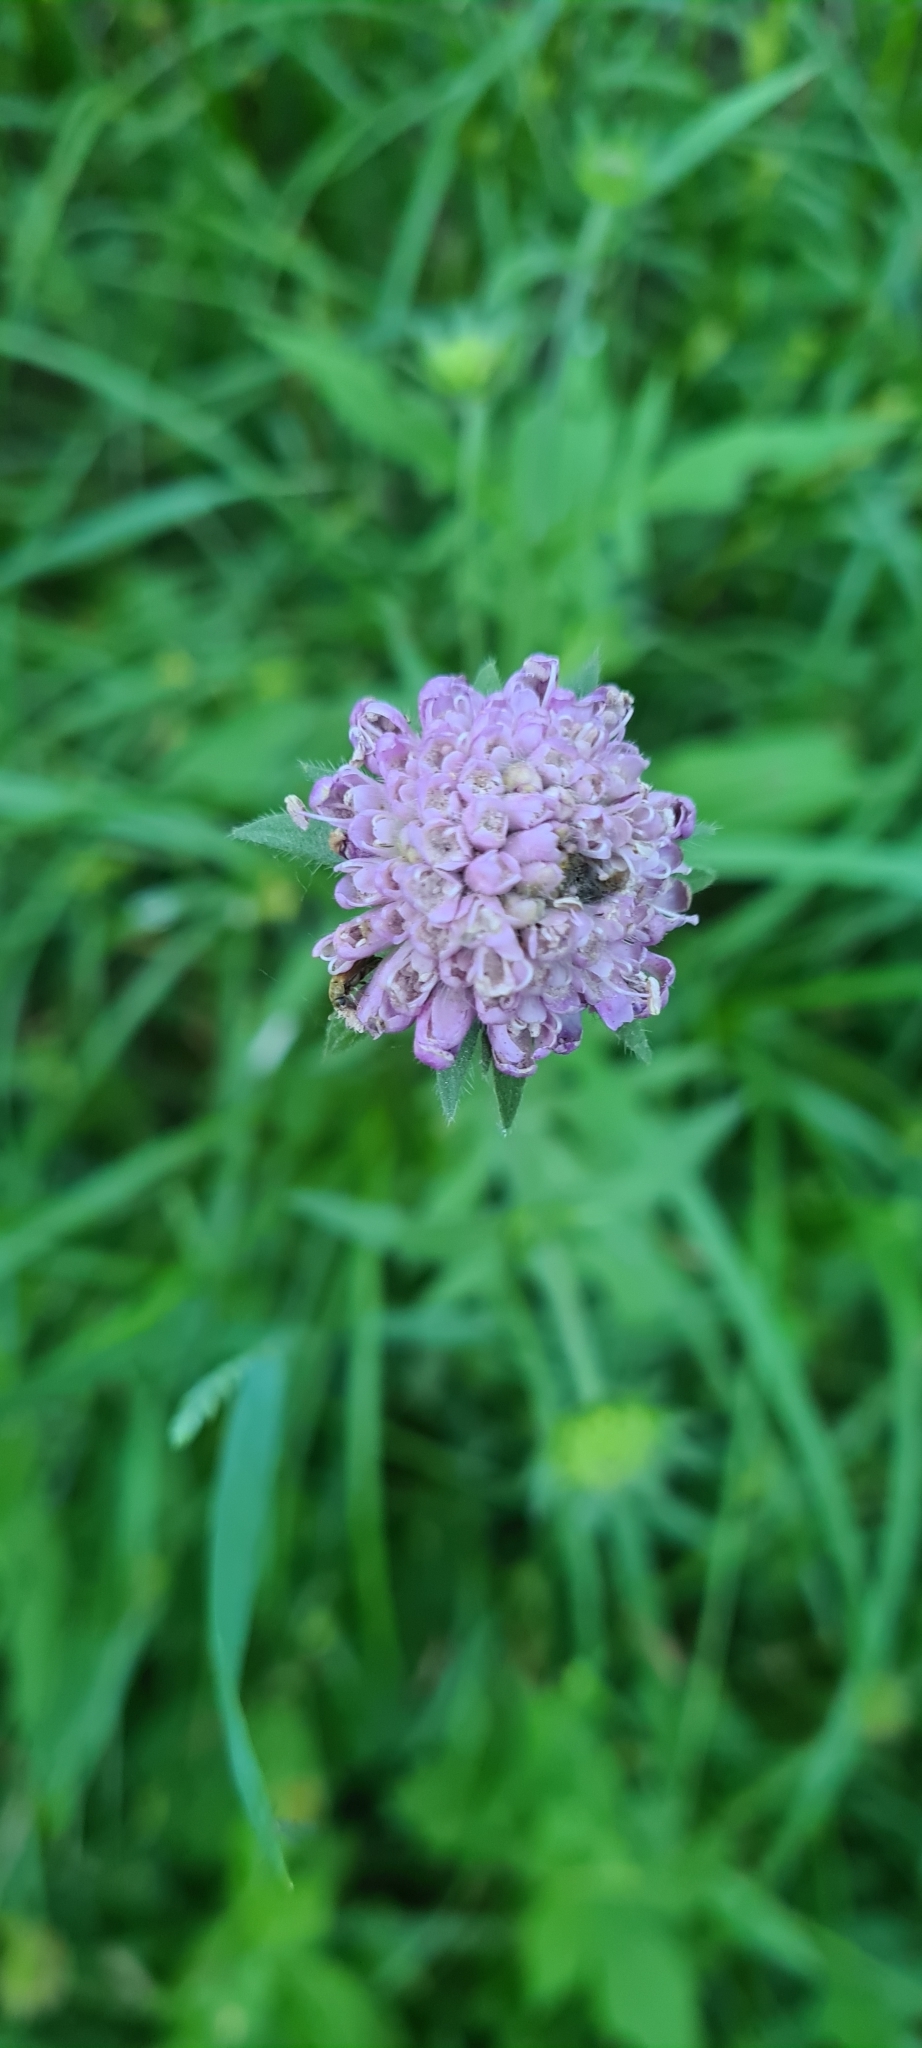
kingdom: Plantae
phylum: Tracheophyta
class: Magnoliopsida
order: Dipsacales
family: Caprifoliaceae
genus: Knautia
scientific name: Knautia arvensis
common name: Field scabiosa
